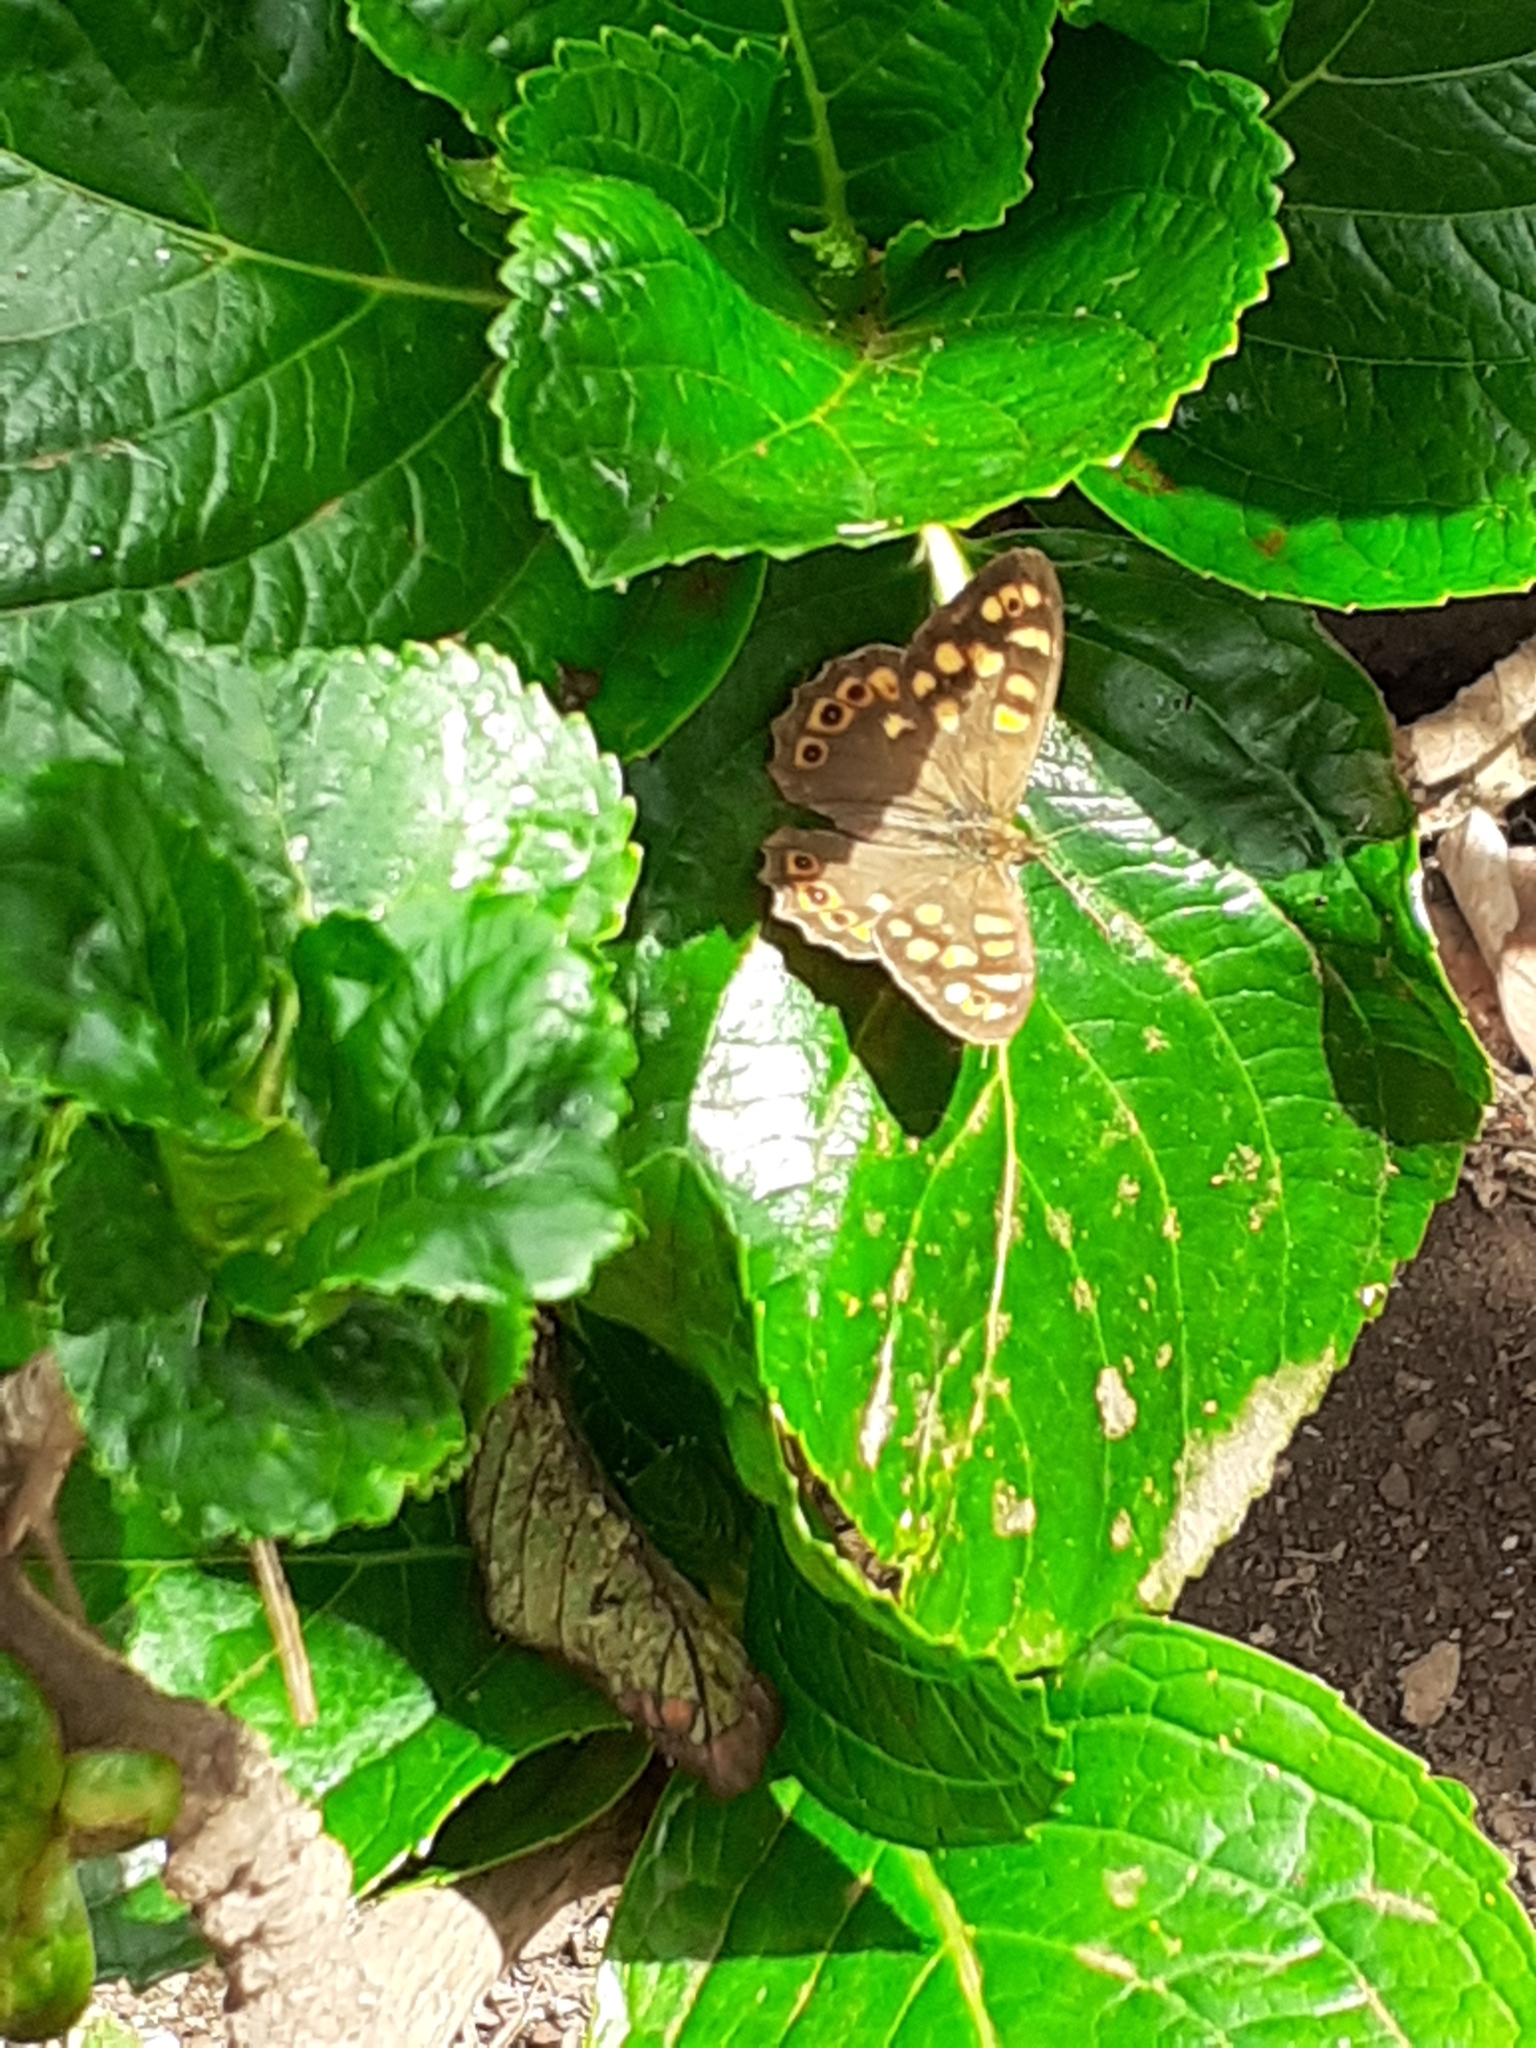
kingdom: Animalia
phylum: Arthropoda
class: Insecta
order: Lepidoptera
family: Nymphalidae
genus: Pararge
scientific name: Pararge aegeria
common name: Speckled wood
